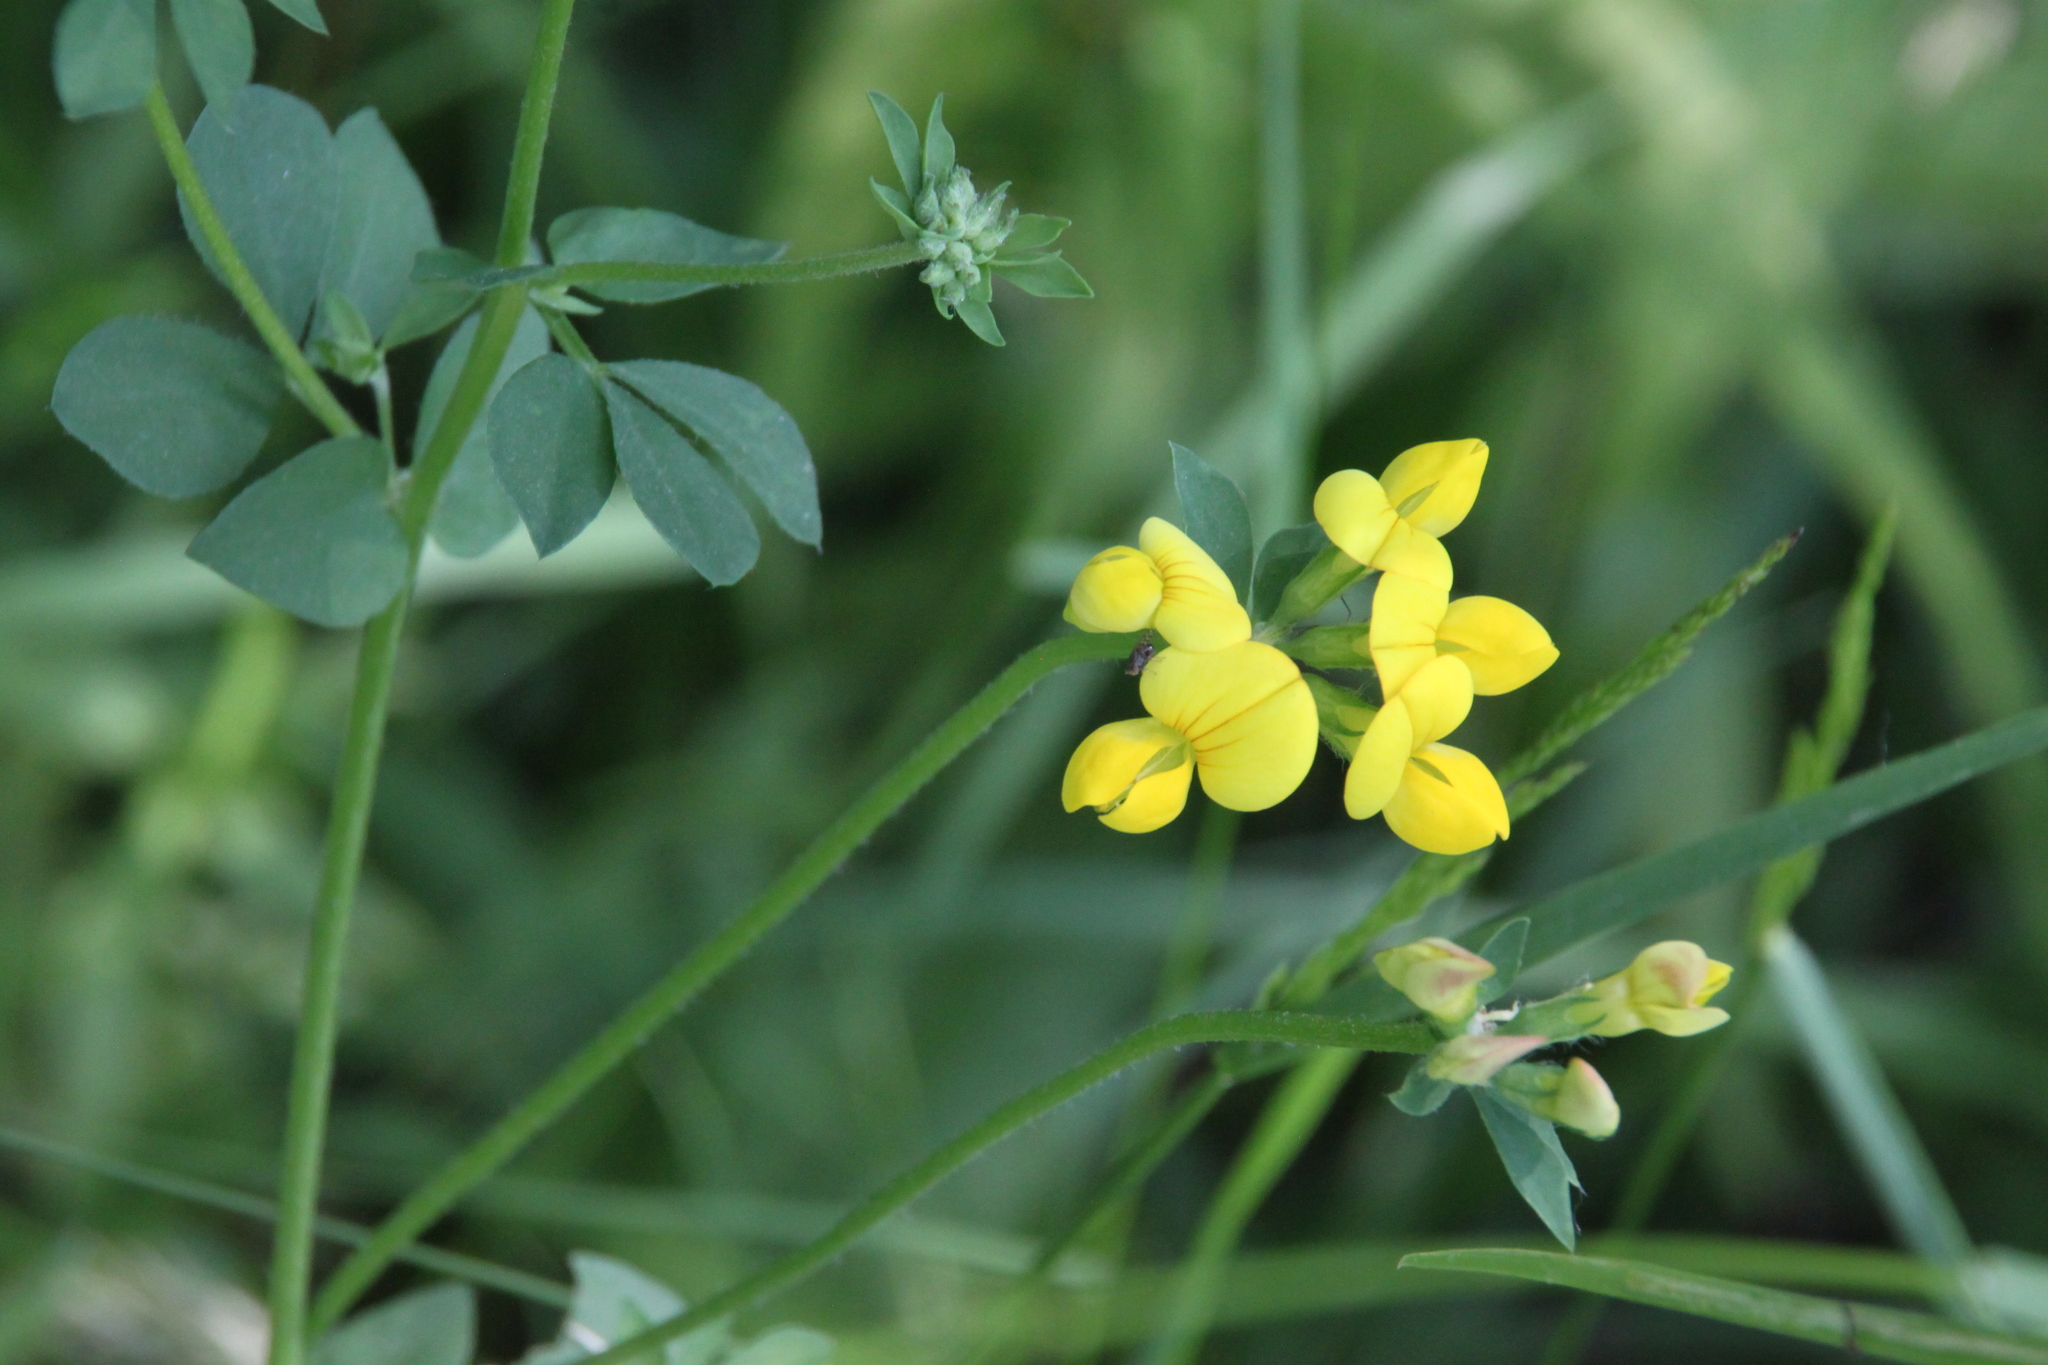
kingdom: Plantae
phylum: Tracheophyta
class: Magnoliopsida
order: Fabales
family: Fabaceae
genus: Lotus
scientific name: Lotus corniculatus
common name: Common bird's-foot-trefoil
